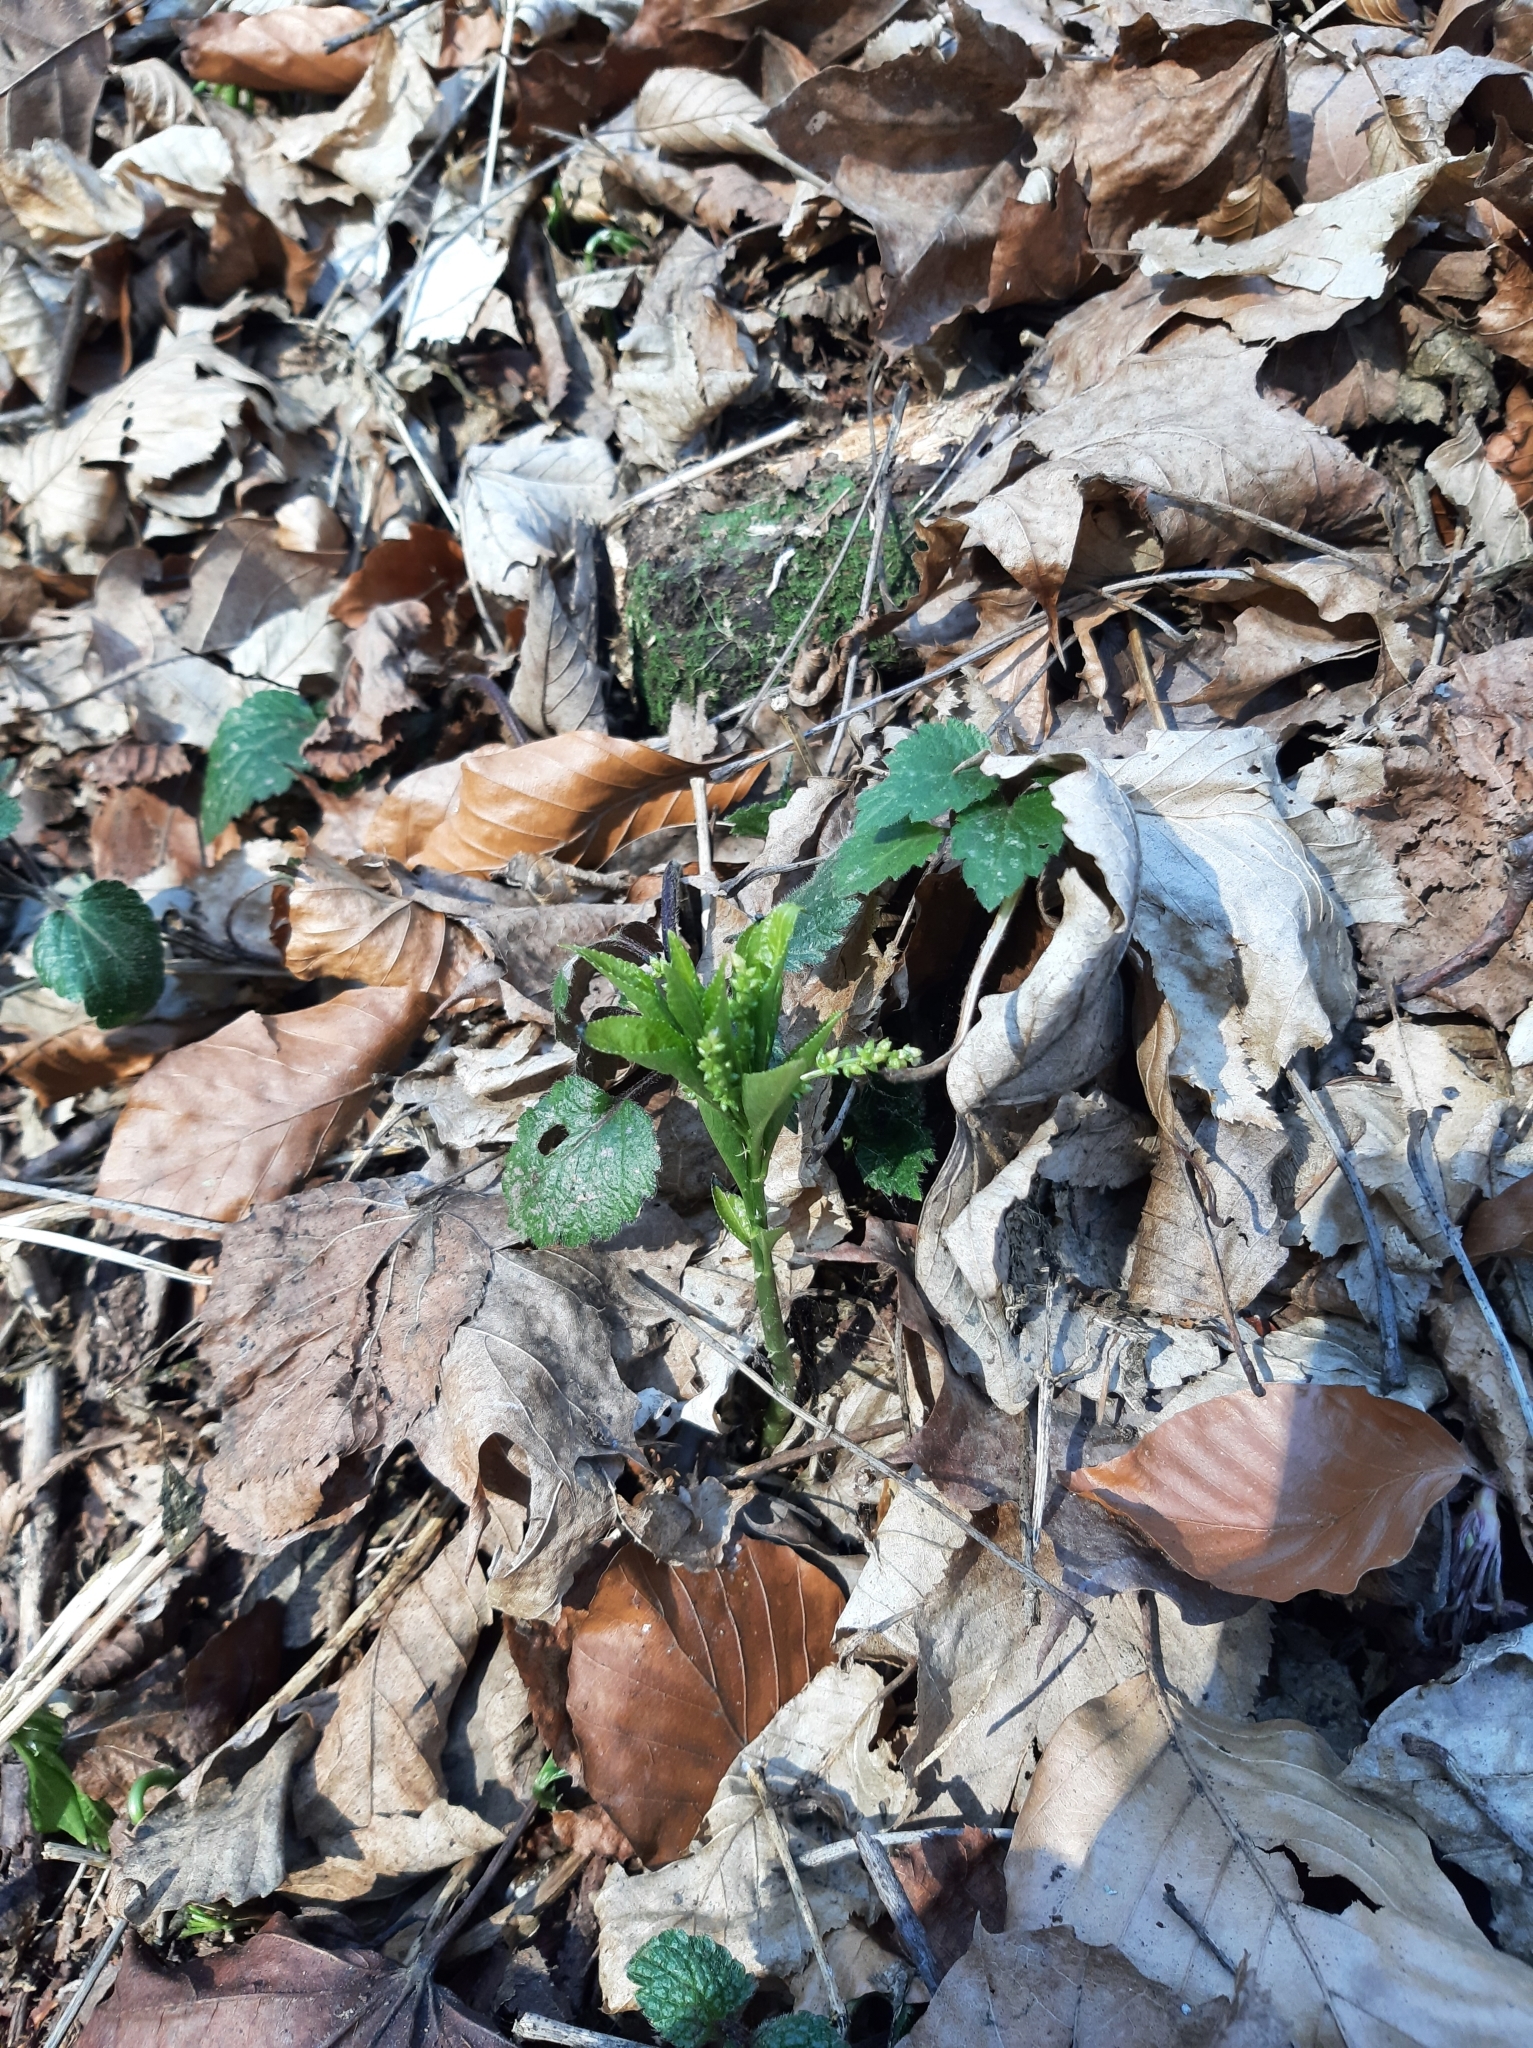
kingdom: Plantae
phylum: Tracheophyta
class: Magnoliopsida
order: Malpighiales
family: Euphorbiaceae
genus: Mercurialis
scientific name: Mercurialis perennis
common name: Dog mercury
